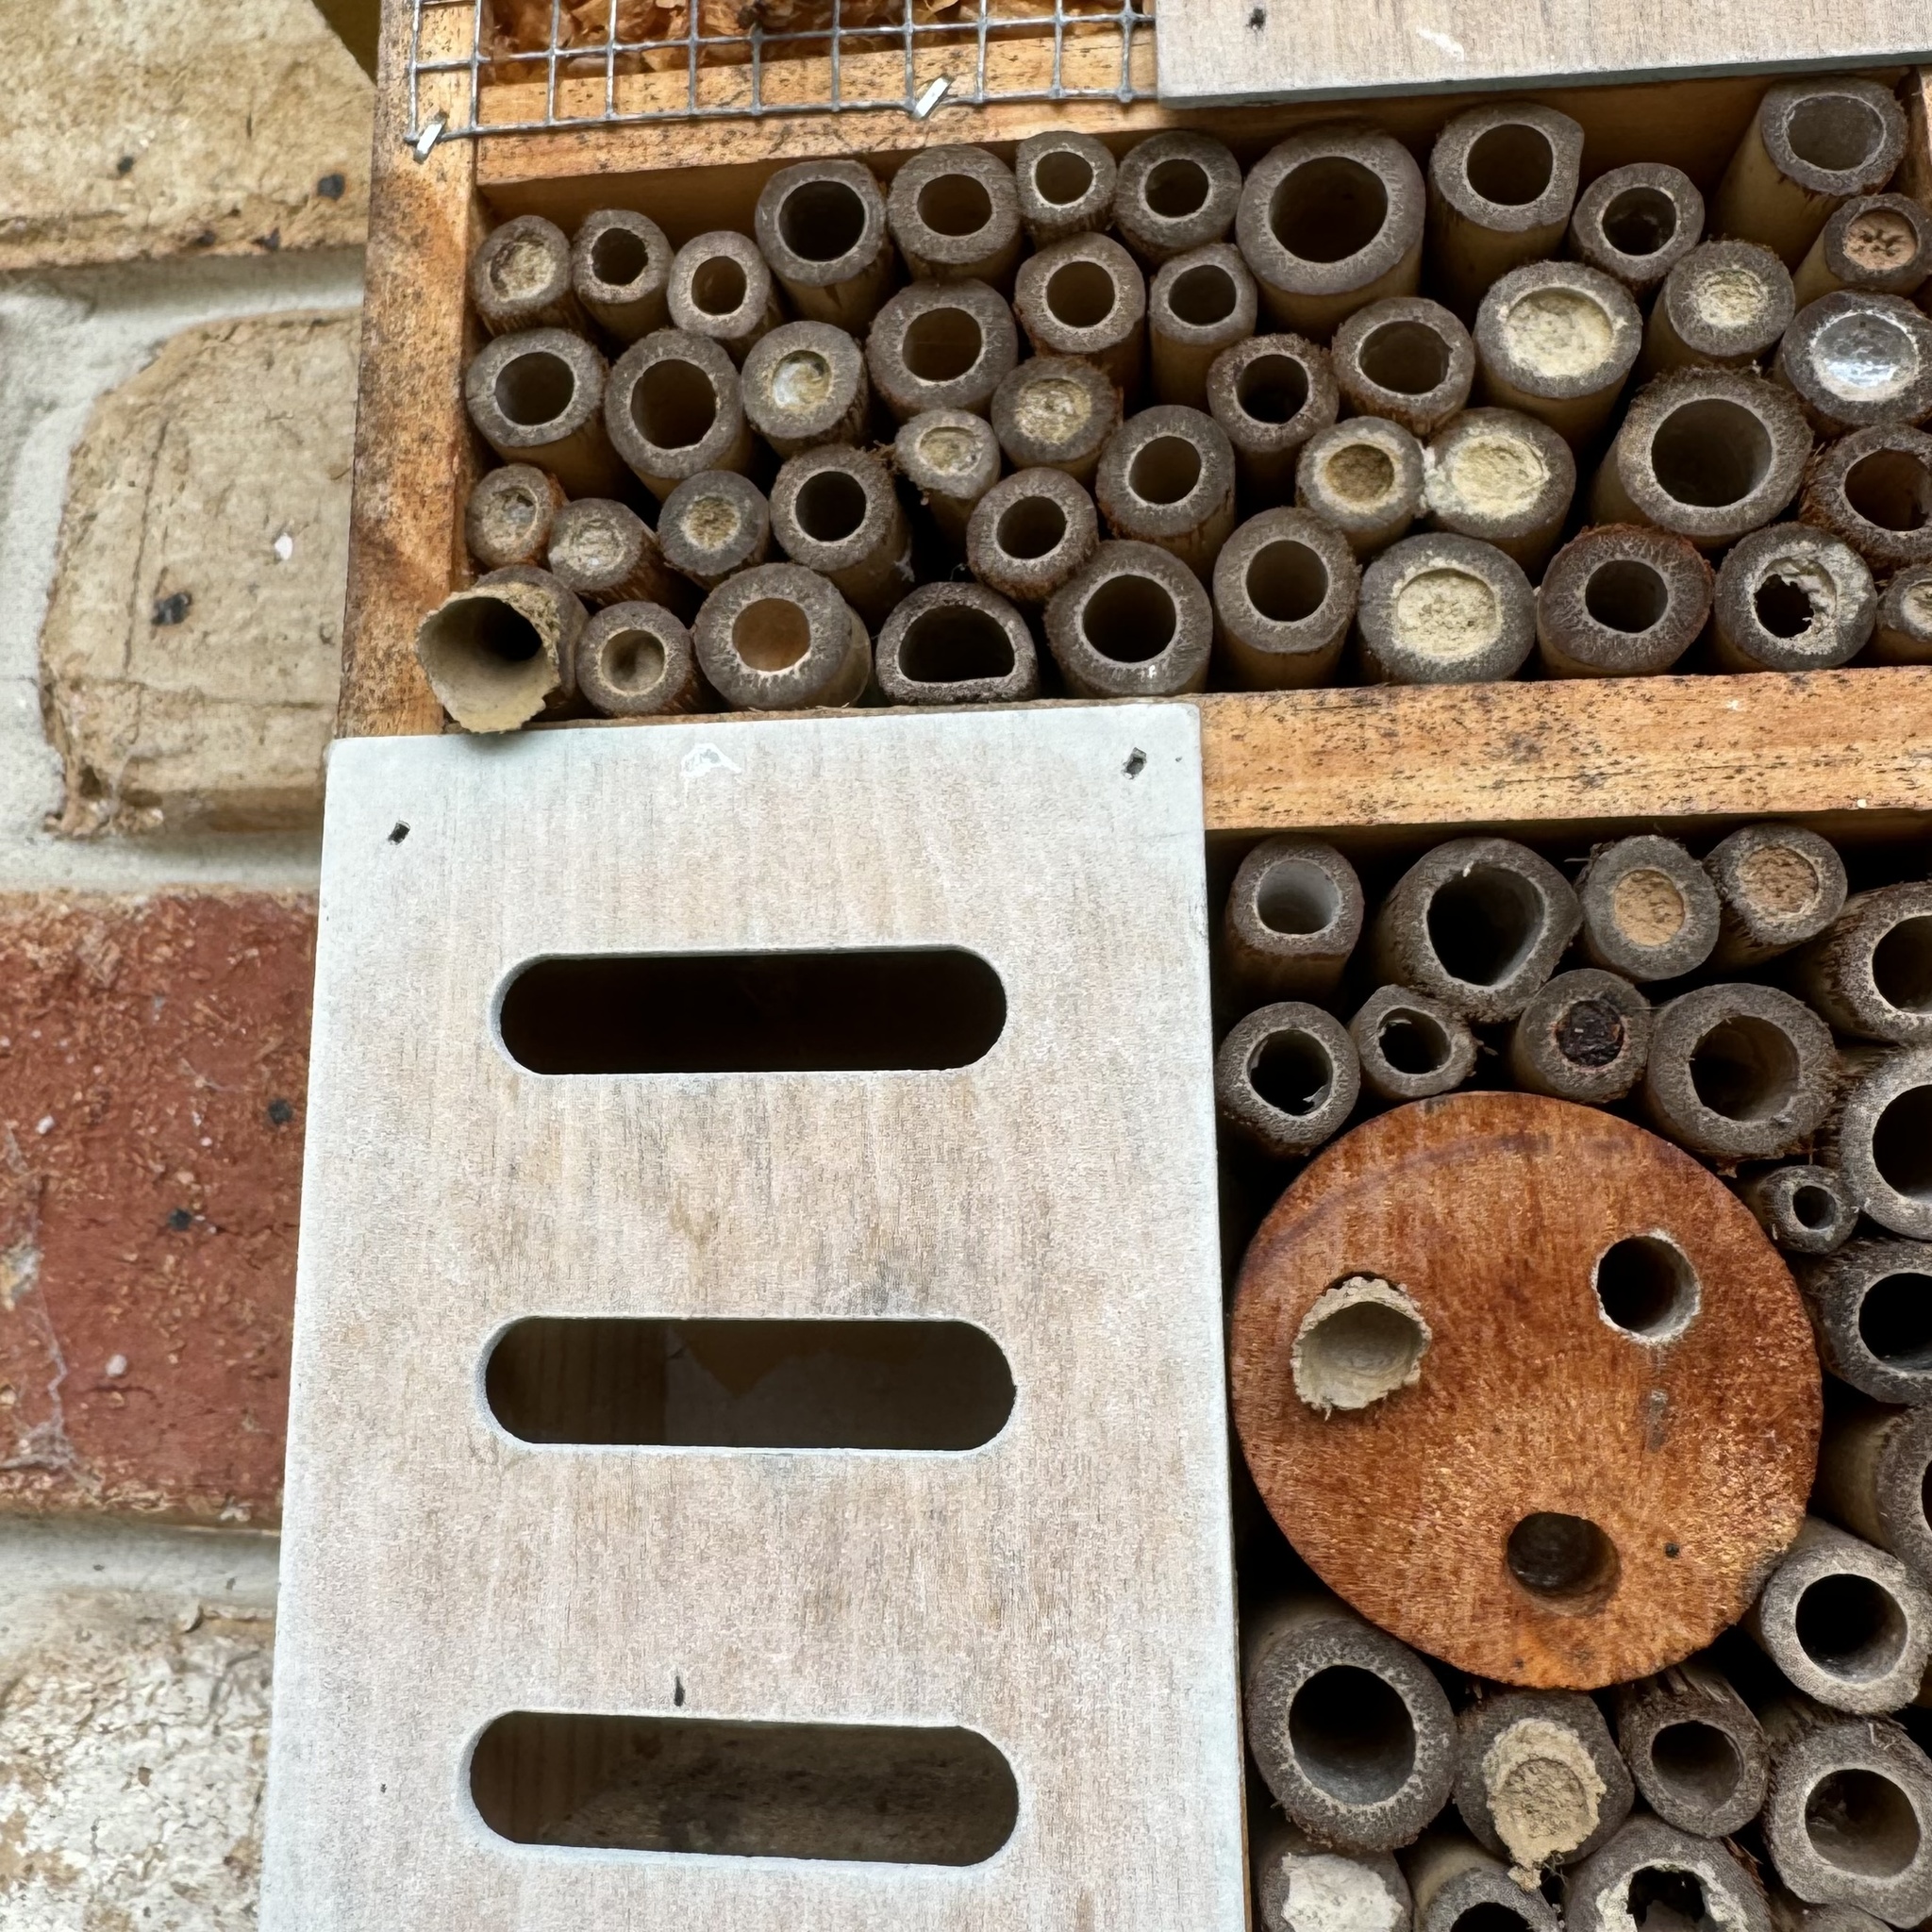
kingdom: Animalia
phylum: Arthropoda
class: Insecta
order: Hymenoptera
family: Eumenidae
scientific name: Eumenidae
